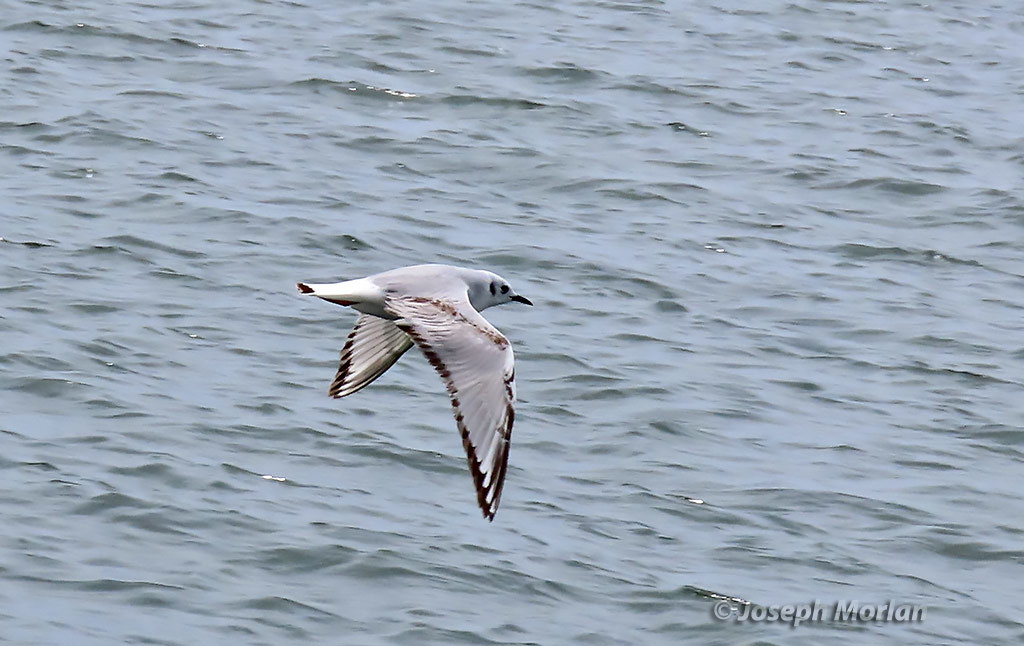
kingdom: Animalia
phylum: Chordata
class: Aves
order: Charadriiformes
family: Laridae
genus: Chroicocephalus
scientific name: Chroicocephalus philadelphia
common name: Bonaparte's gull
